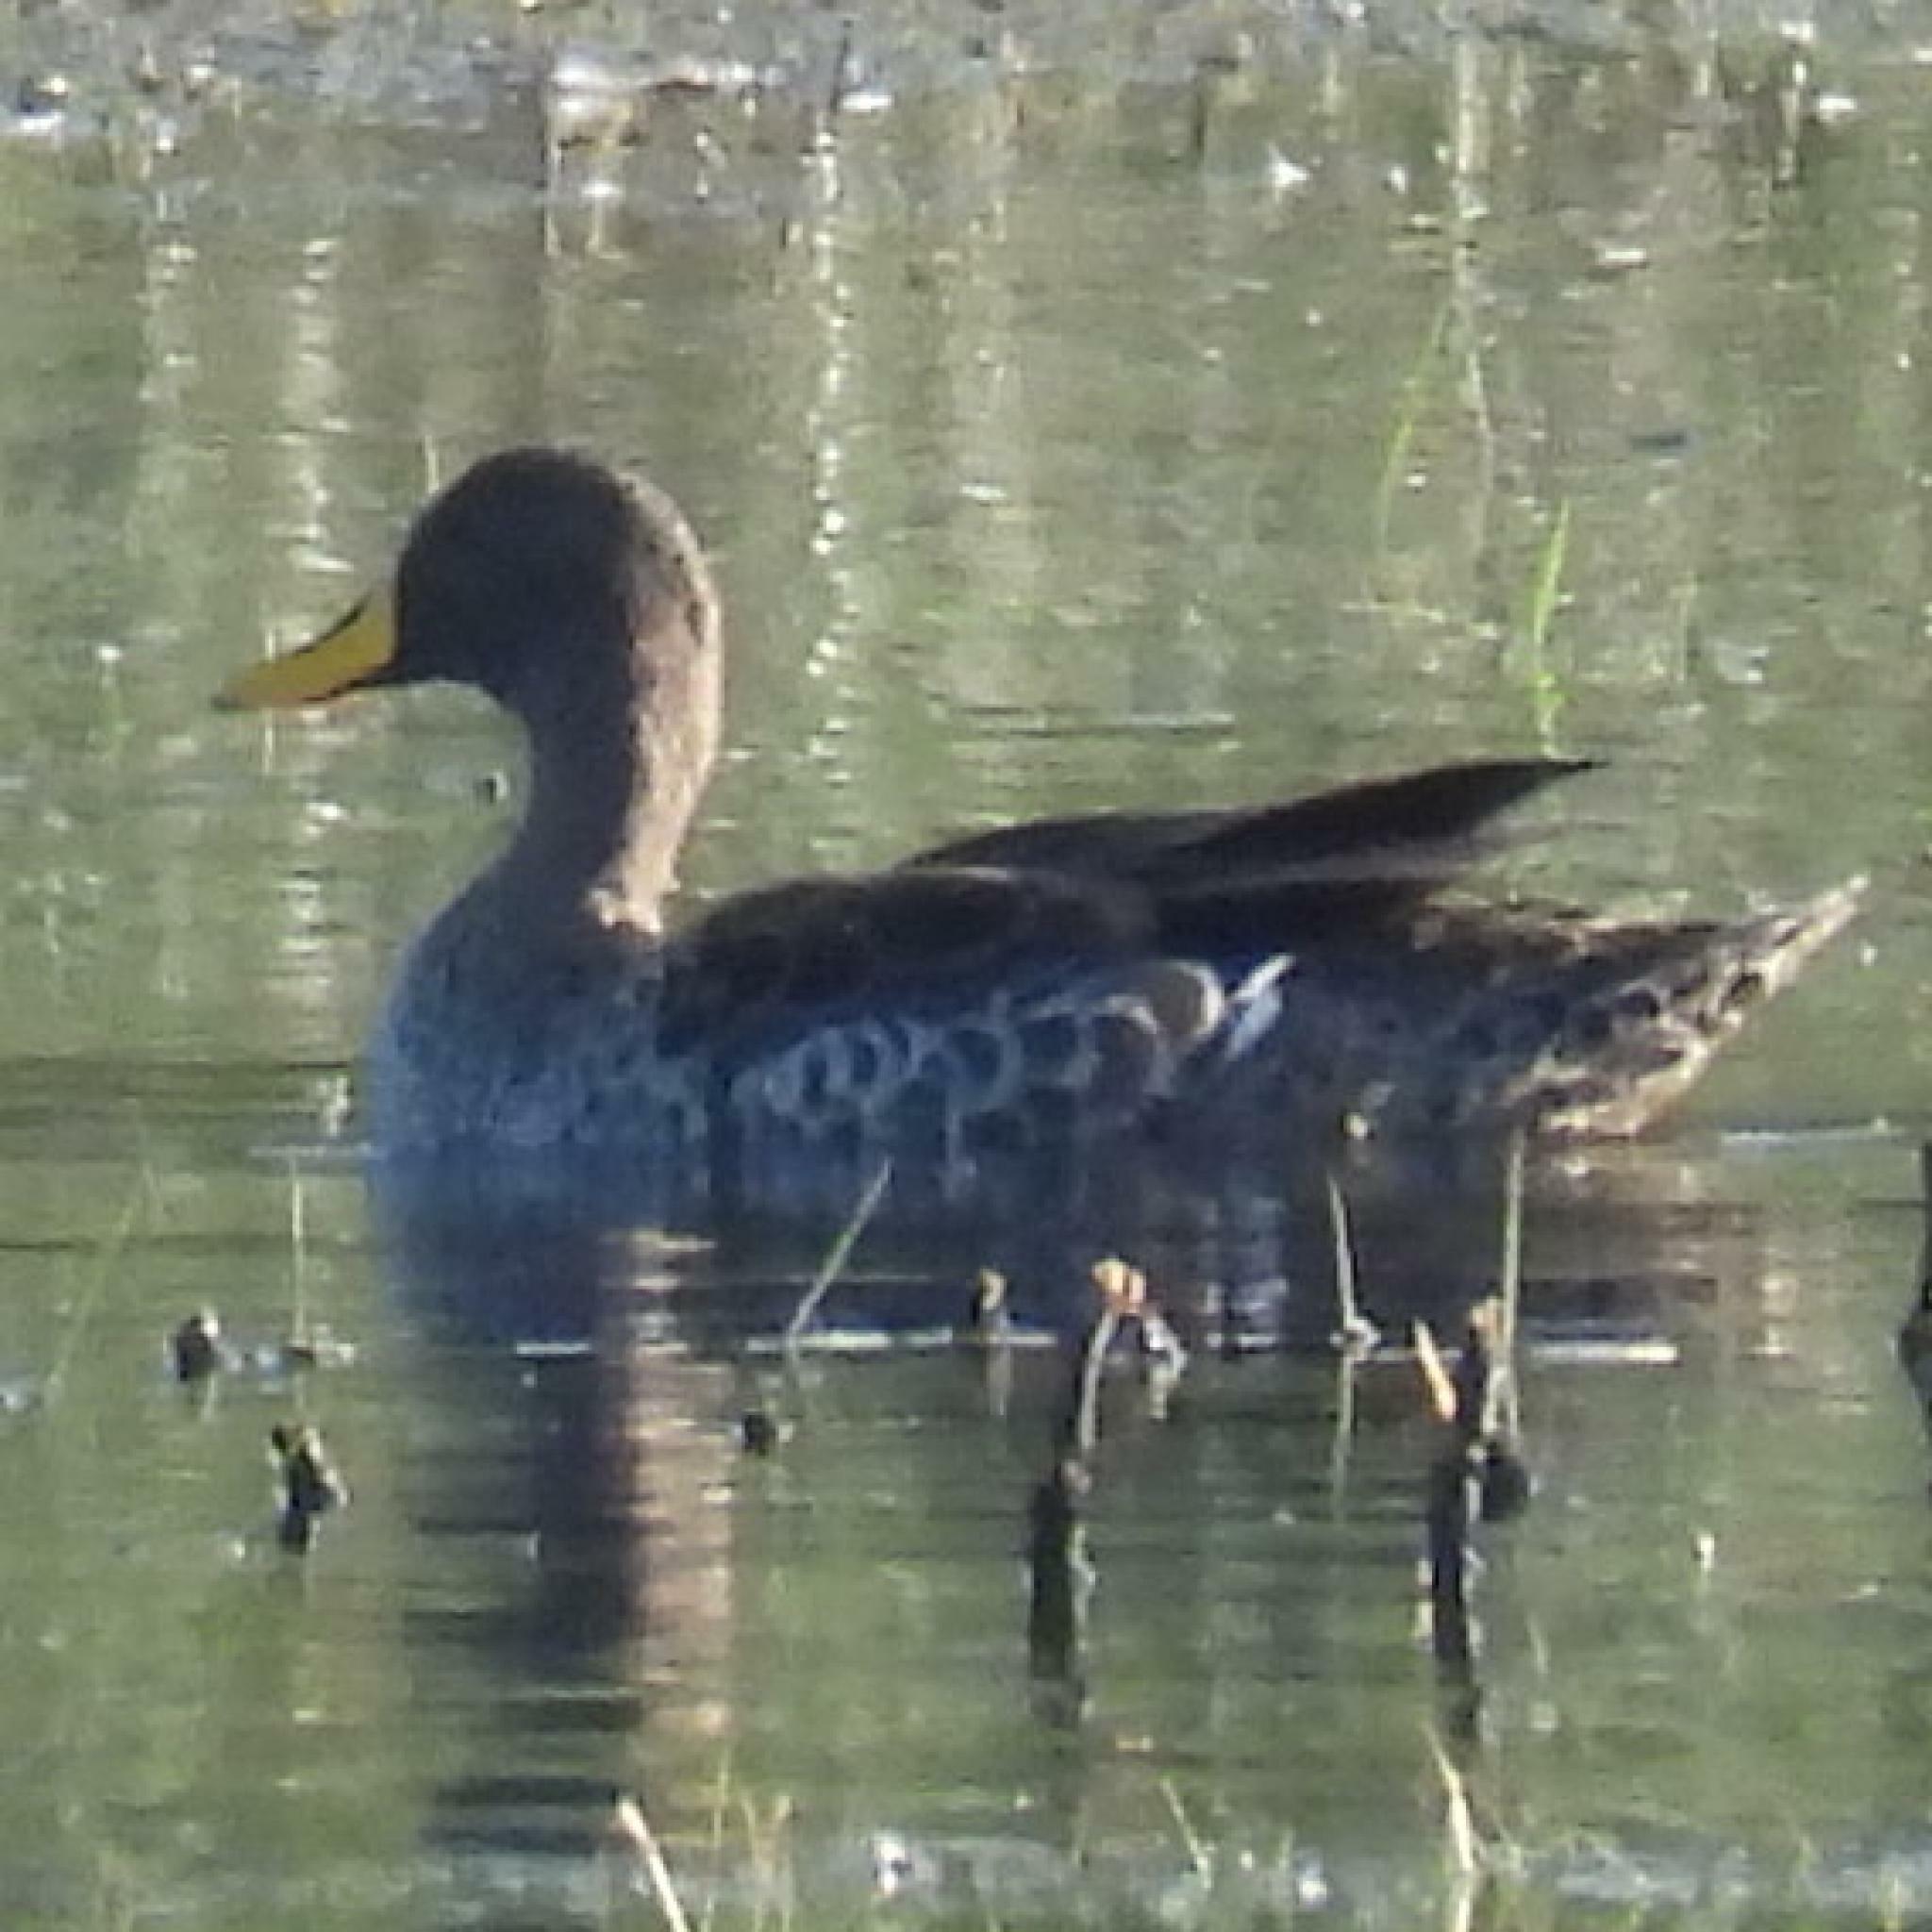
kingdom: Animalia
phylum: Chordata
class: Aves
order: Anseriformes
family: Anatidae
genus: Anas
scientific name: Anas undulata
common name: Yellow-billed duck
